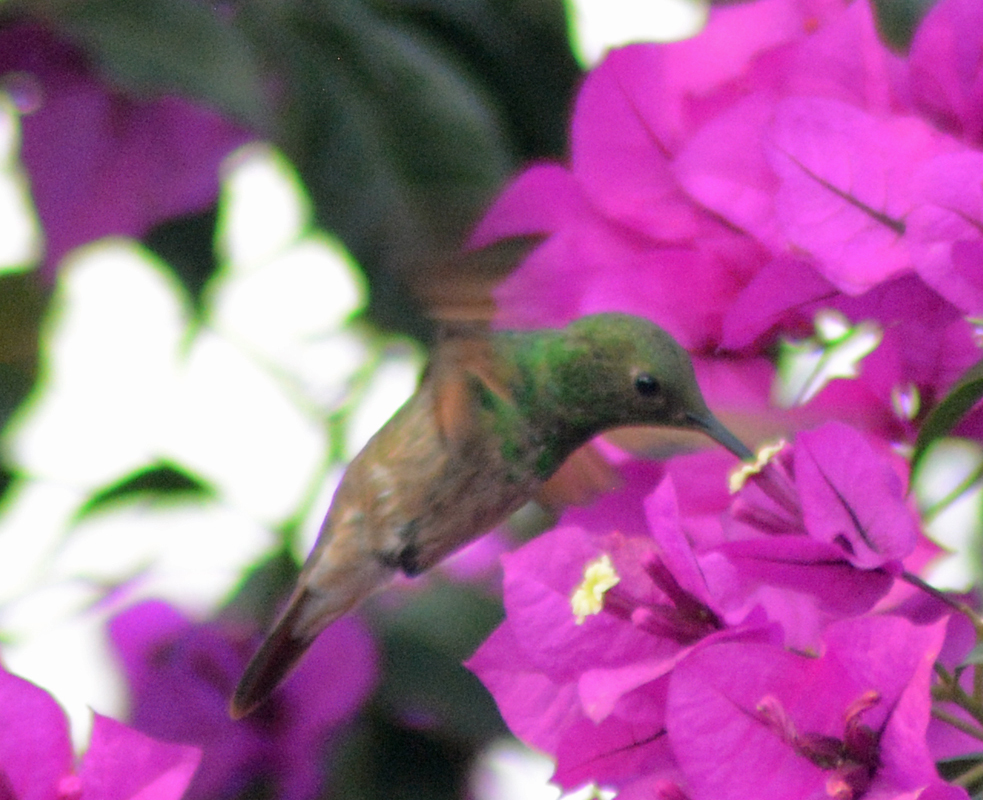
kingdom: Animalia
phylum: Chordata
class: Aves
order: Apodiformes
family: Trochilidae
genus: Saucerottia
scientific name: Saucerottia beryllina
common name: Berylline hummingbird
